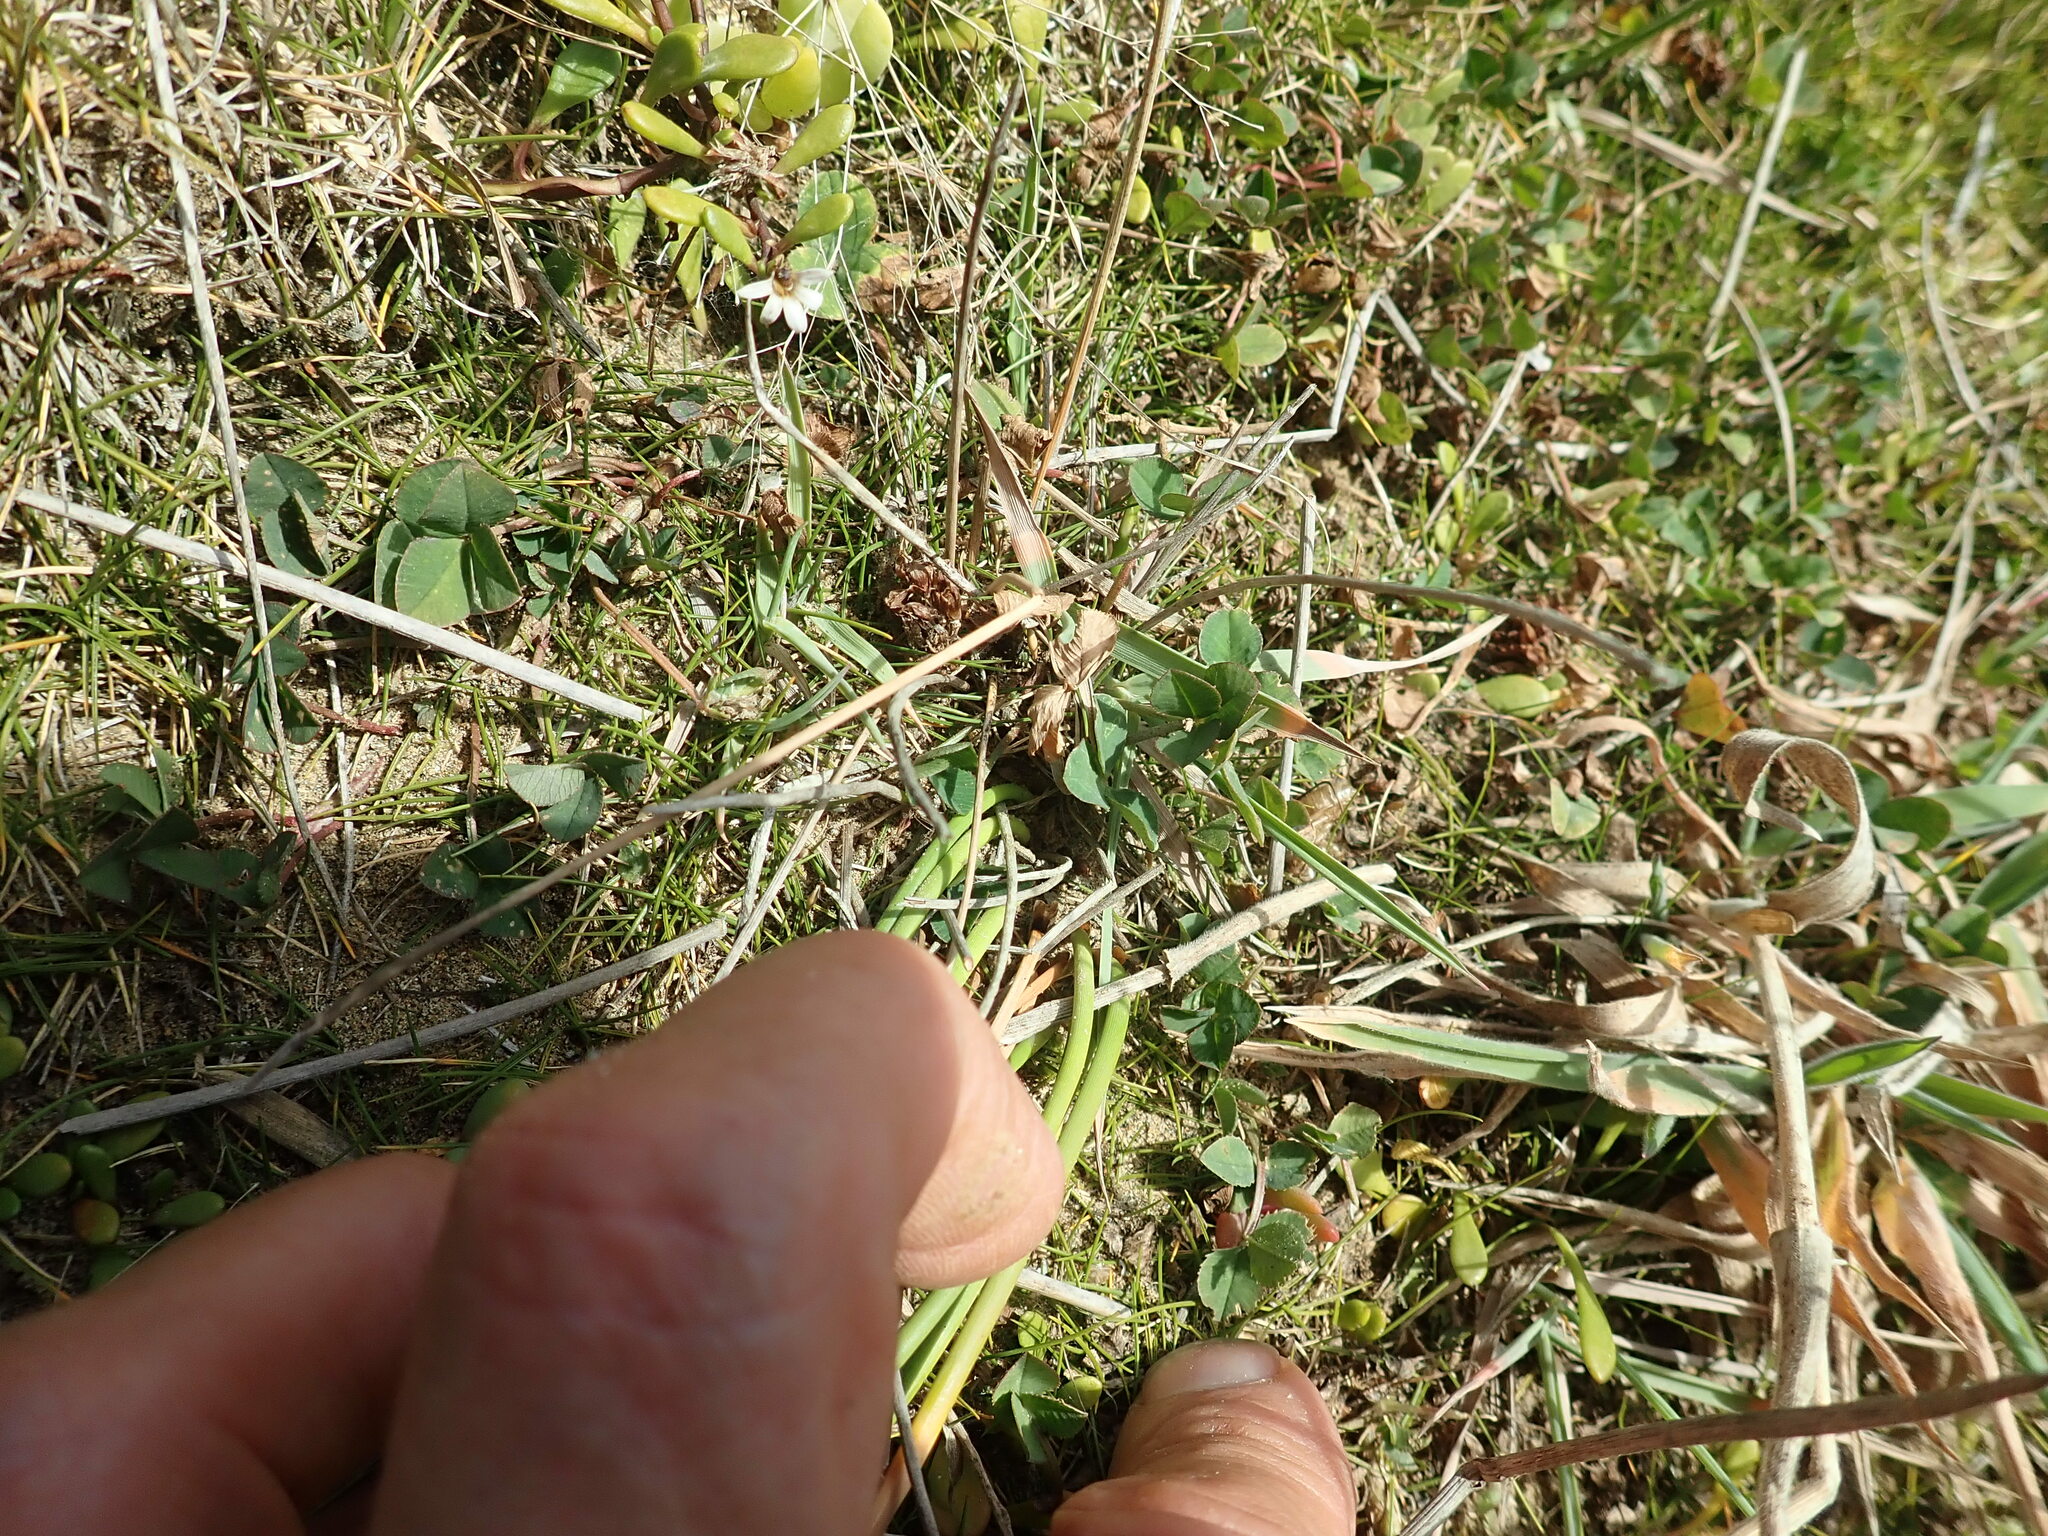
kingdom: Plantae
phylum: Tracheophyta
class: Magnoliopsida
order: Fabales
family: Fabaceae
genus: Trifolium
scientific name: Trifolium repens
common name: White clover
